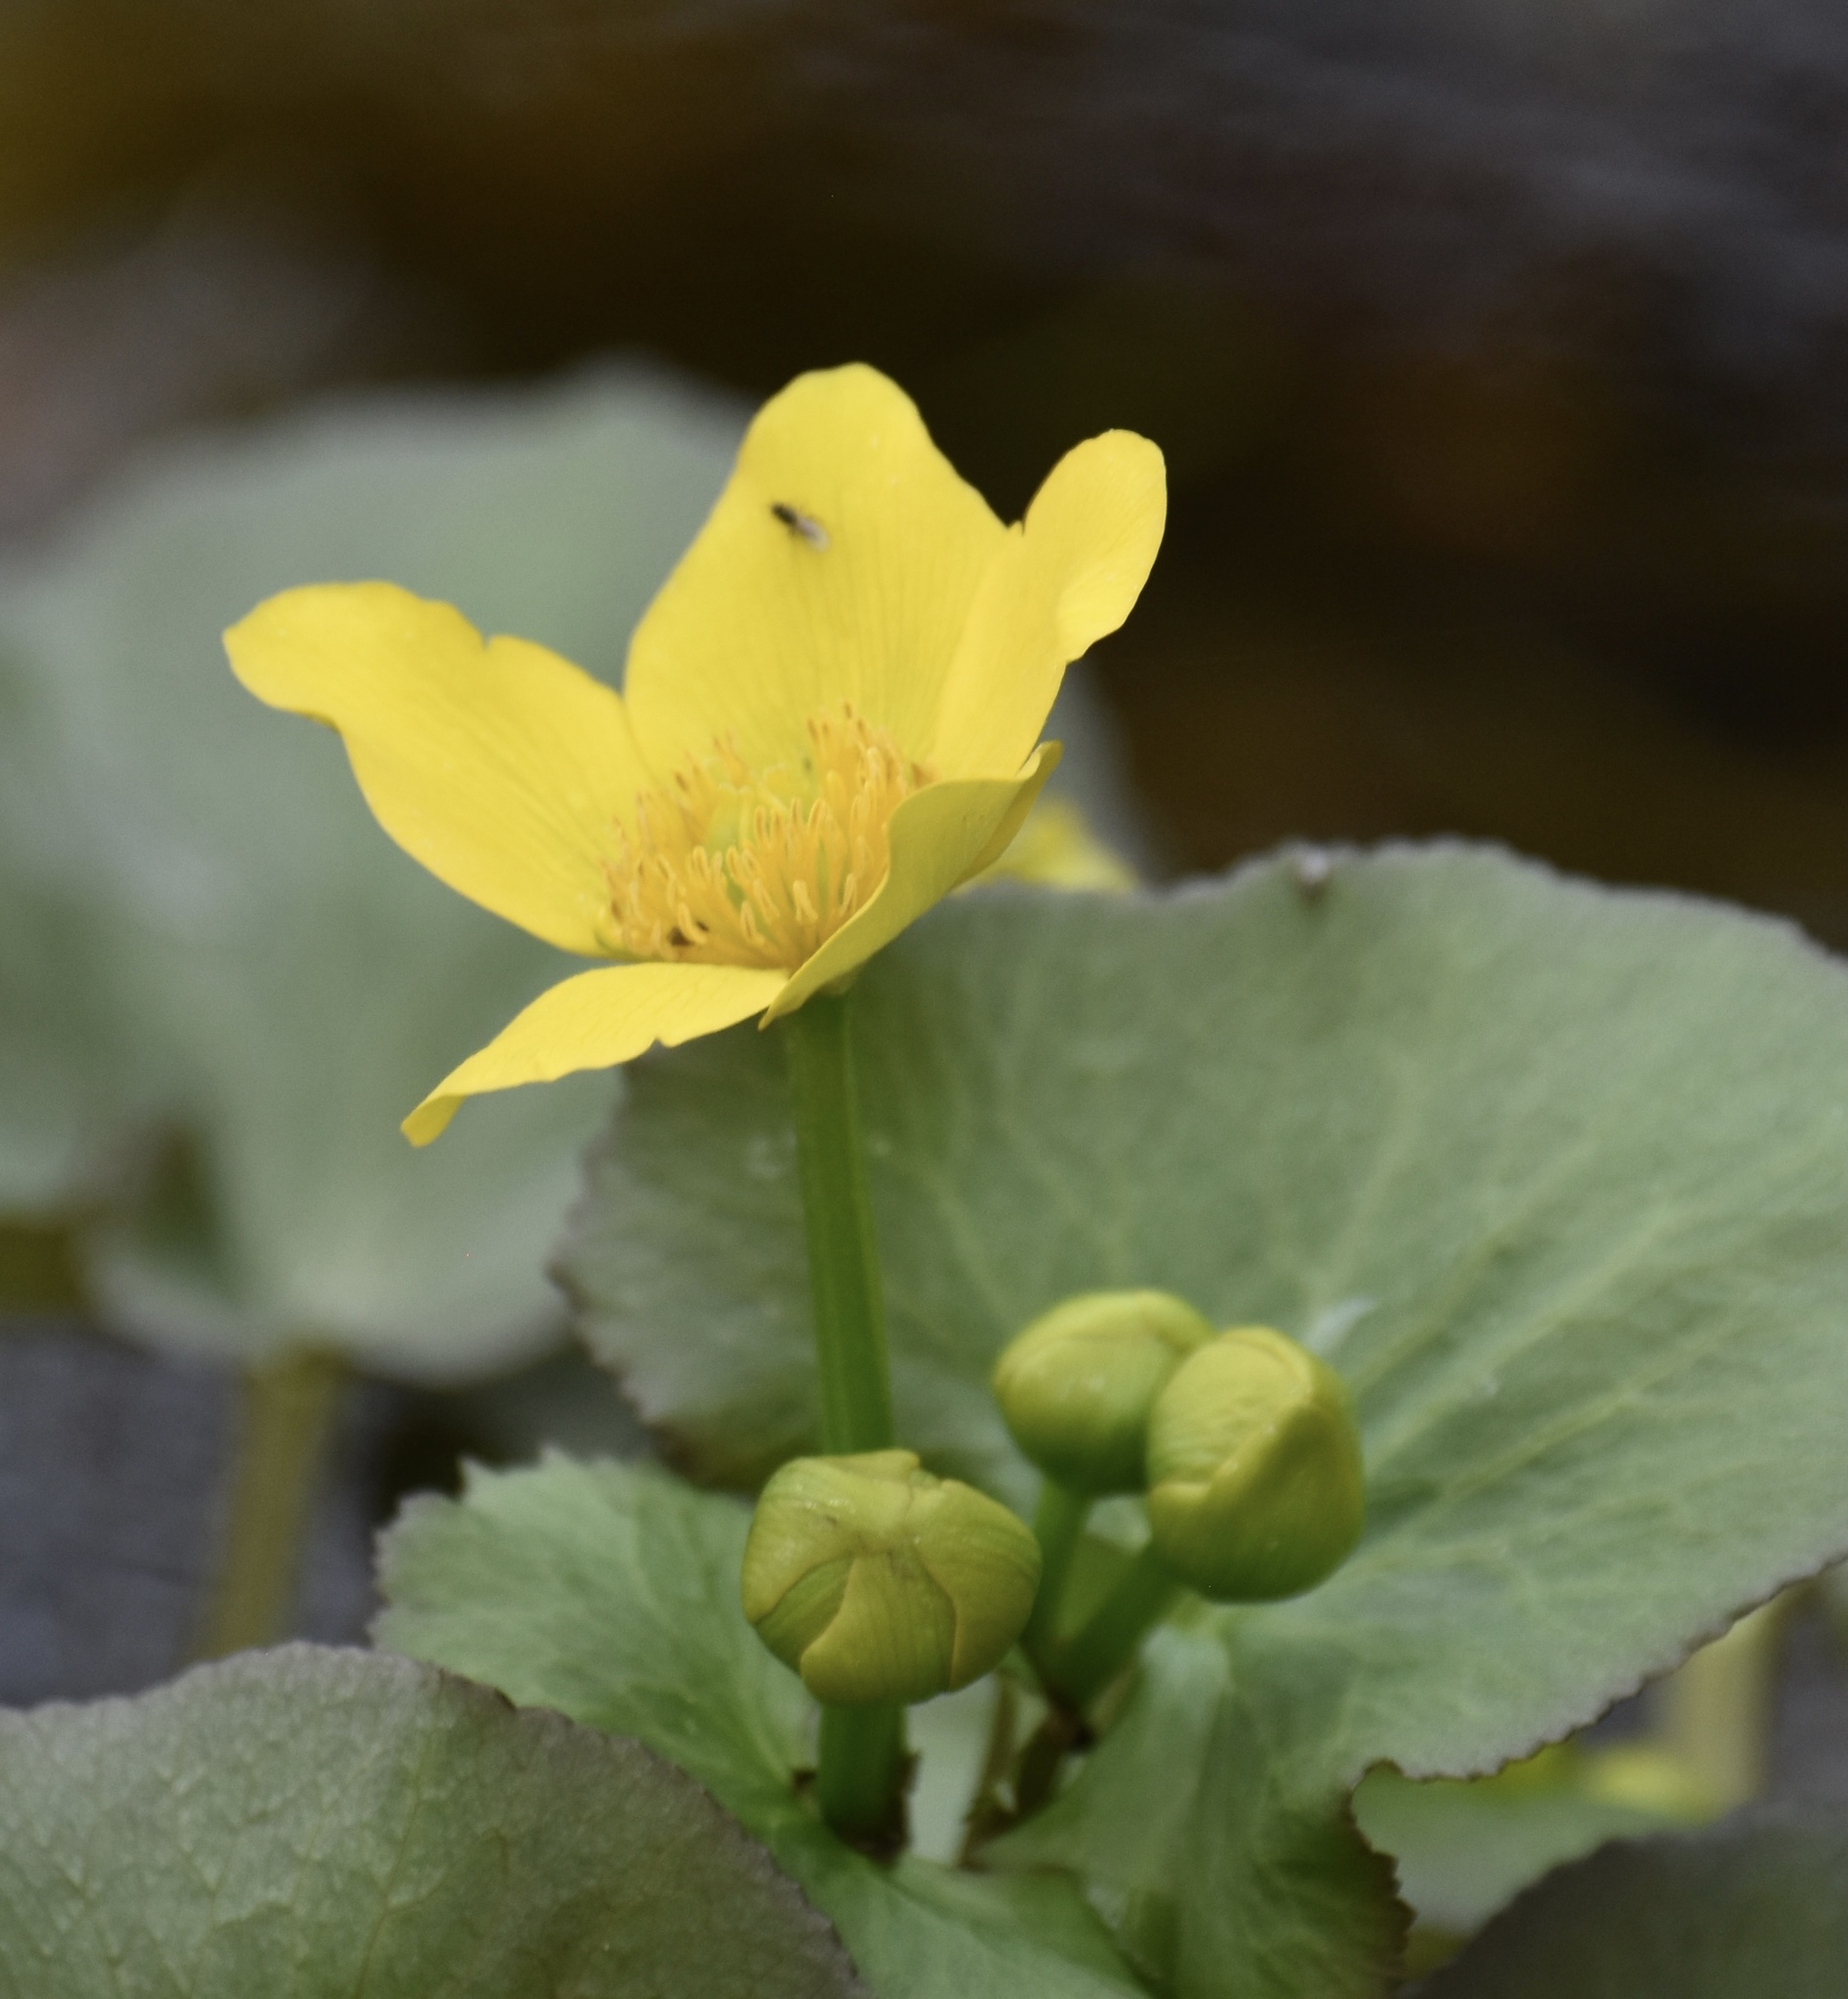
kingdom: Plantae
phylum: Tracheophyta
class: Magnoliopsida
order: Ranunculales
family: Ranunculaceae
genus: Caltha
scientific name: Caltha palustris
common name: Marsh marigold
